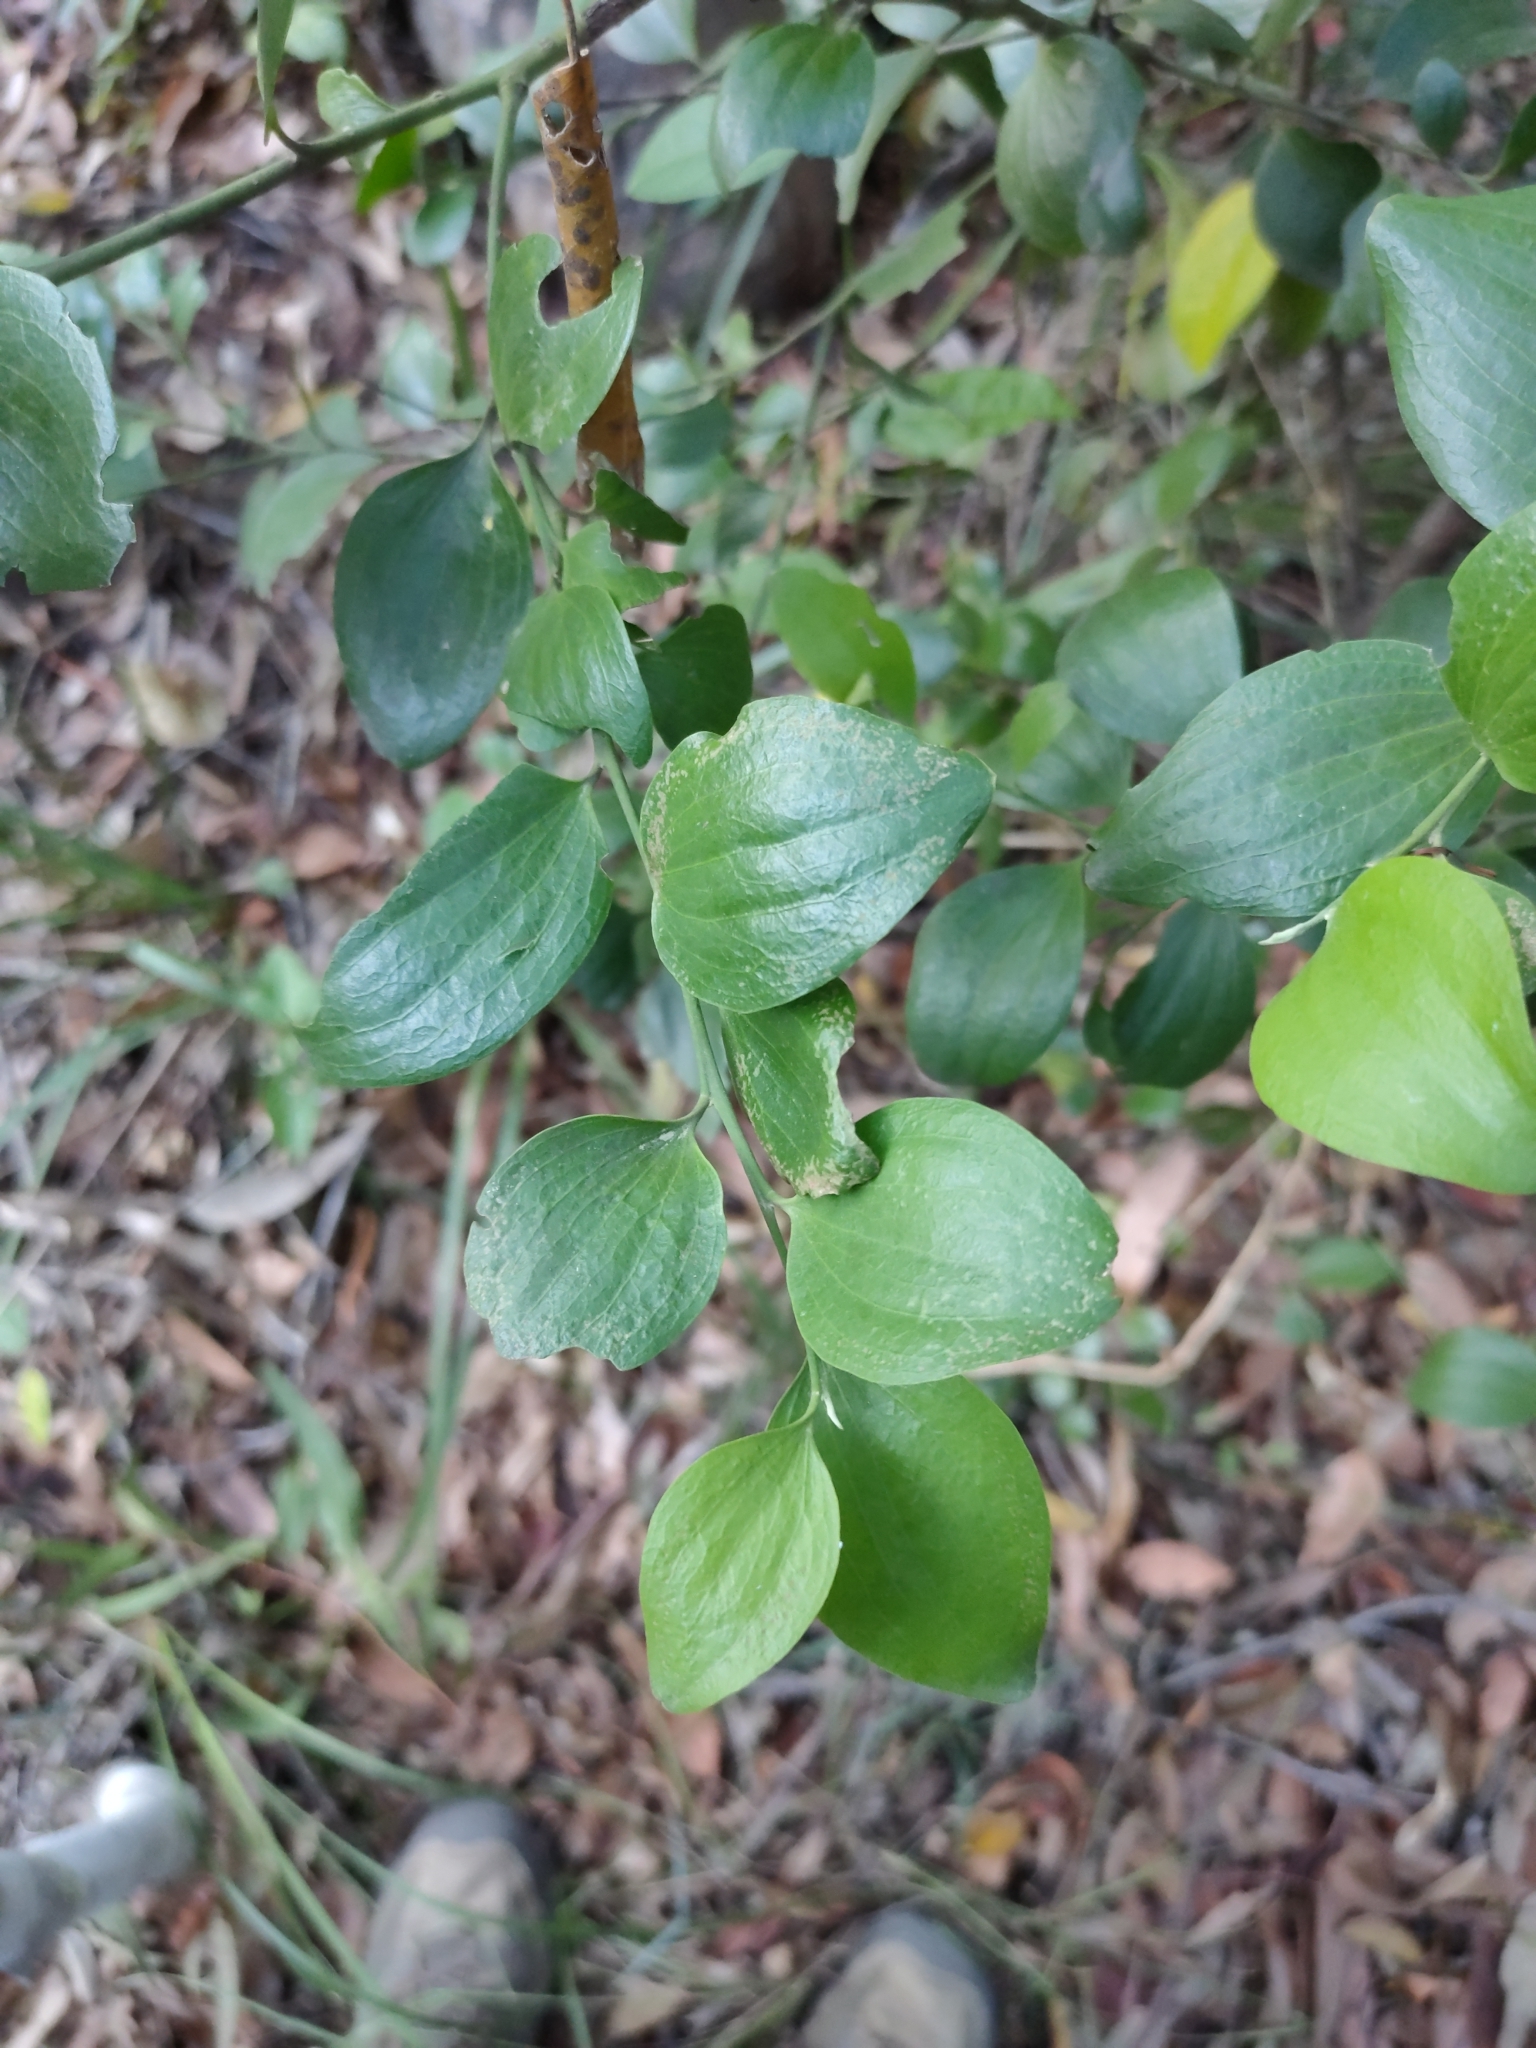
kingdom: Plantae
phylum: Tracheophyta
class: Magnoliopsida
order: Santalales
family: Santalaceae
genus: Exocarpos
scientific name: Exocarpos latifolius
